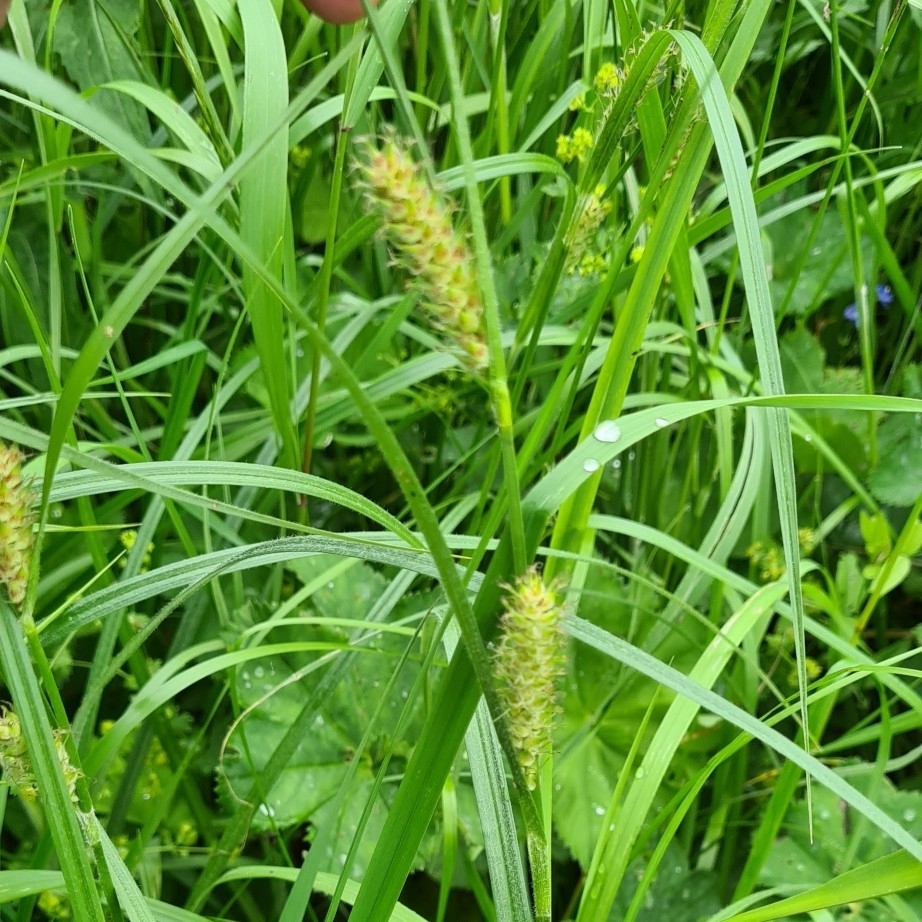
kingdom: Plantae
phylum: Tracheophyta
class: Liliopsida
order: Poales
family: Cyperaceae
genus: Carex
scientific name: Carex hirta
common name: Hairy sedge
